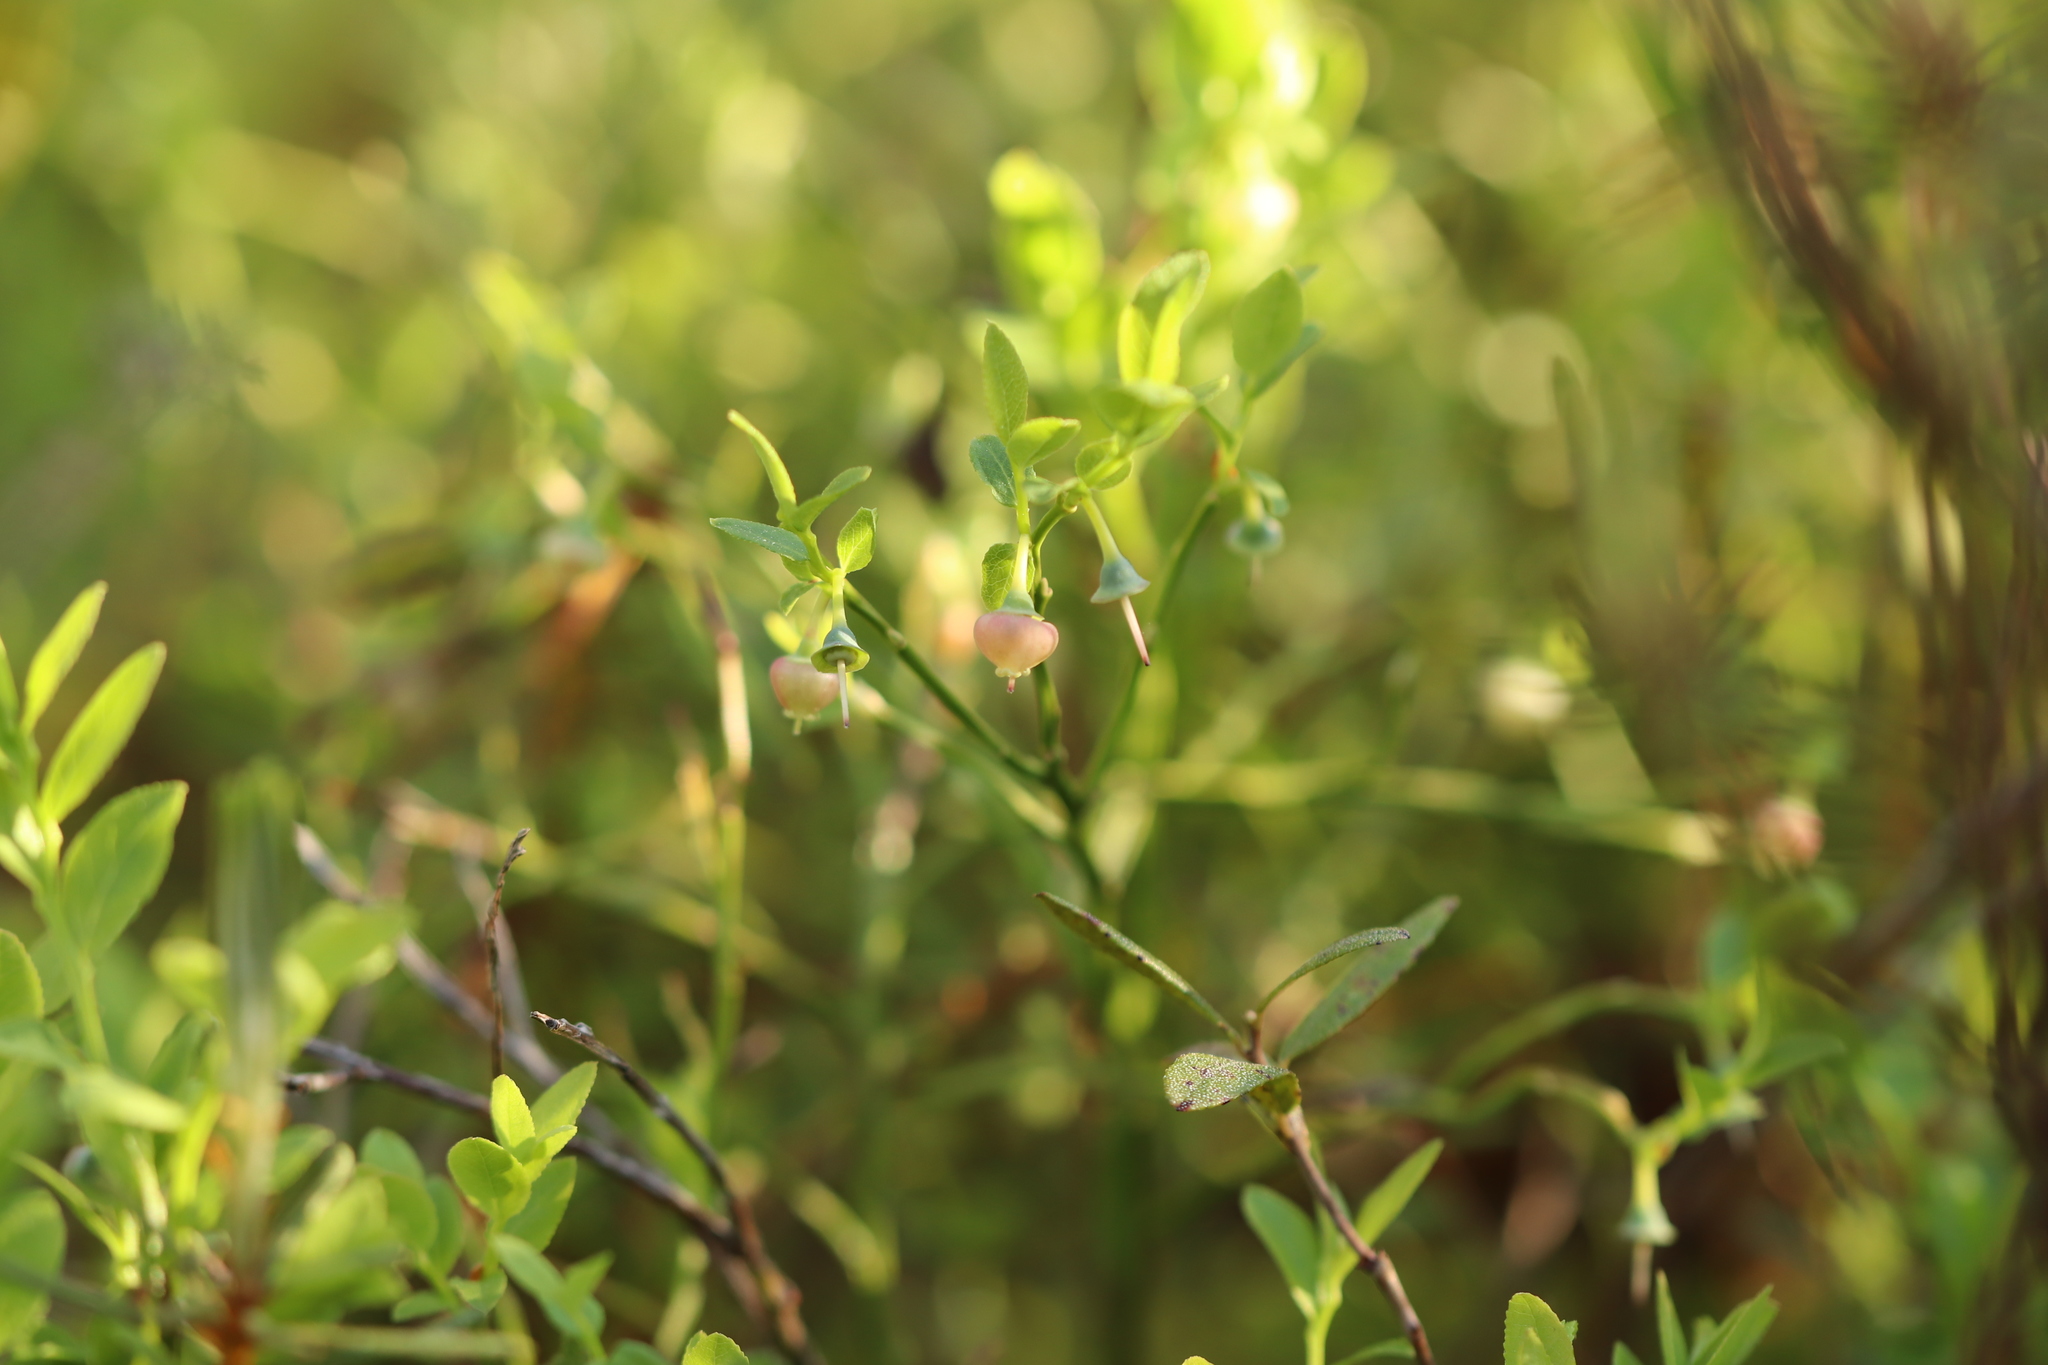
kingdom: Plantae
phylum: Tracheophyta
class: Magnoliopsida
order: Ericales
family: Ericaceae
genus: Vaccinium
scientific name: Vaccinium myrtillus
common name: Bilberry
